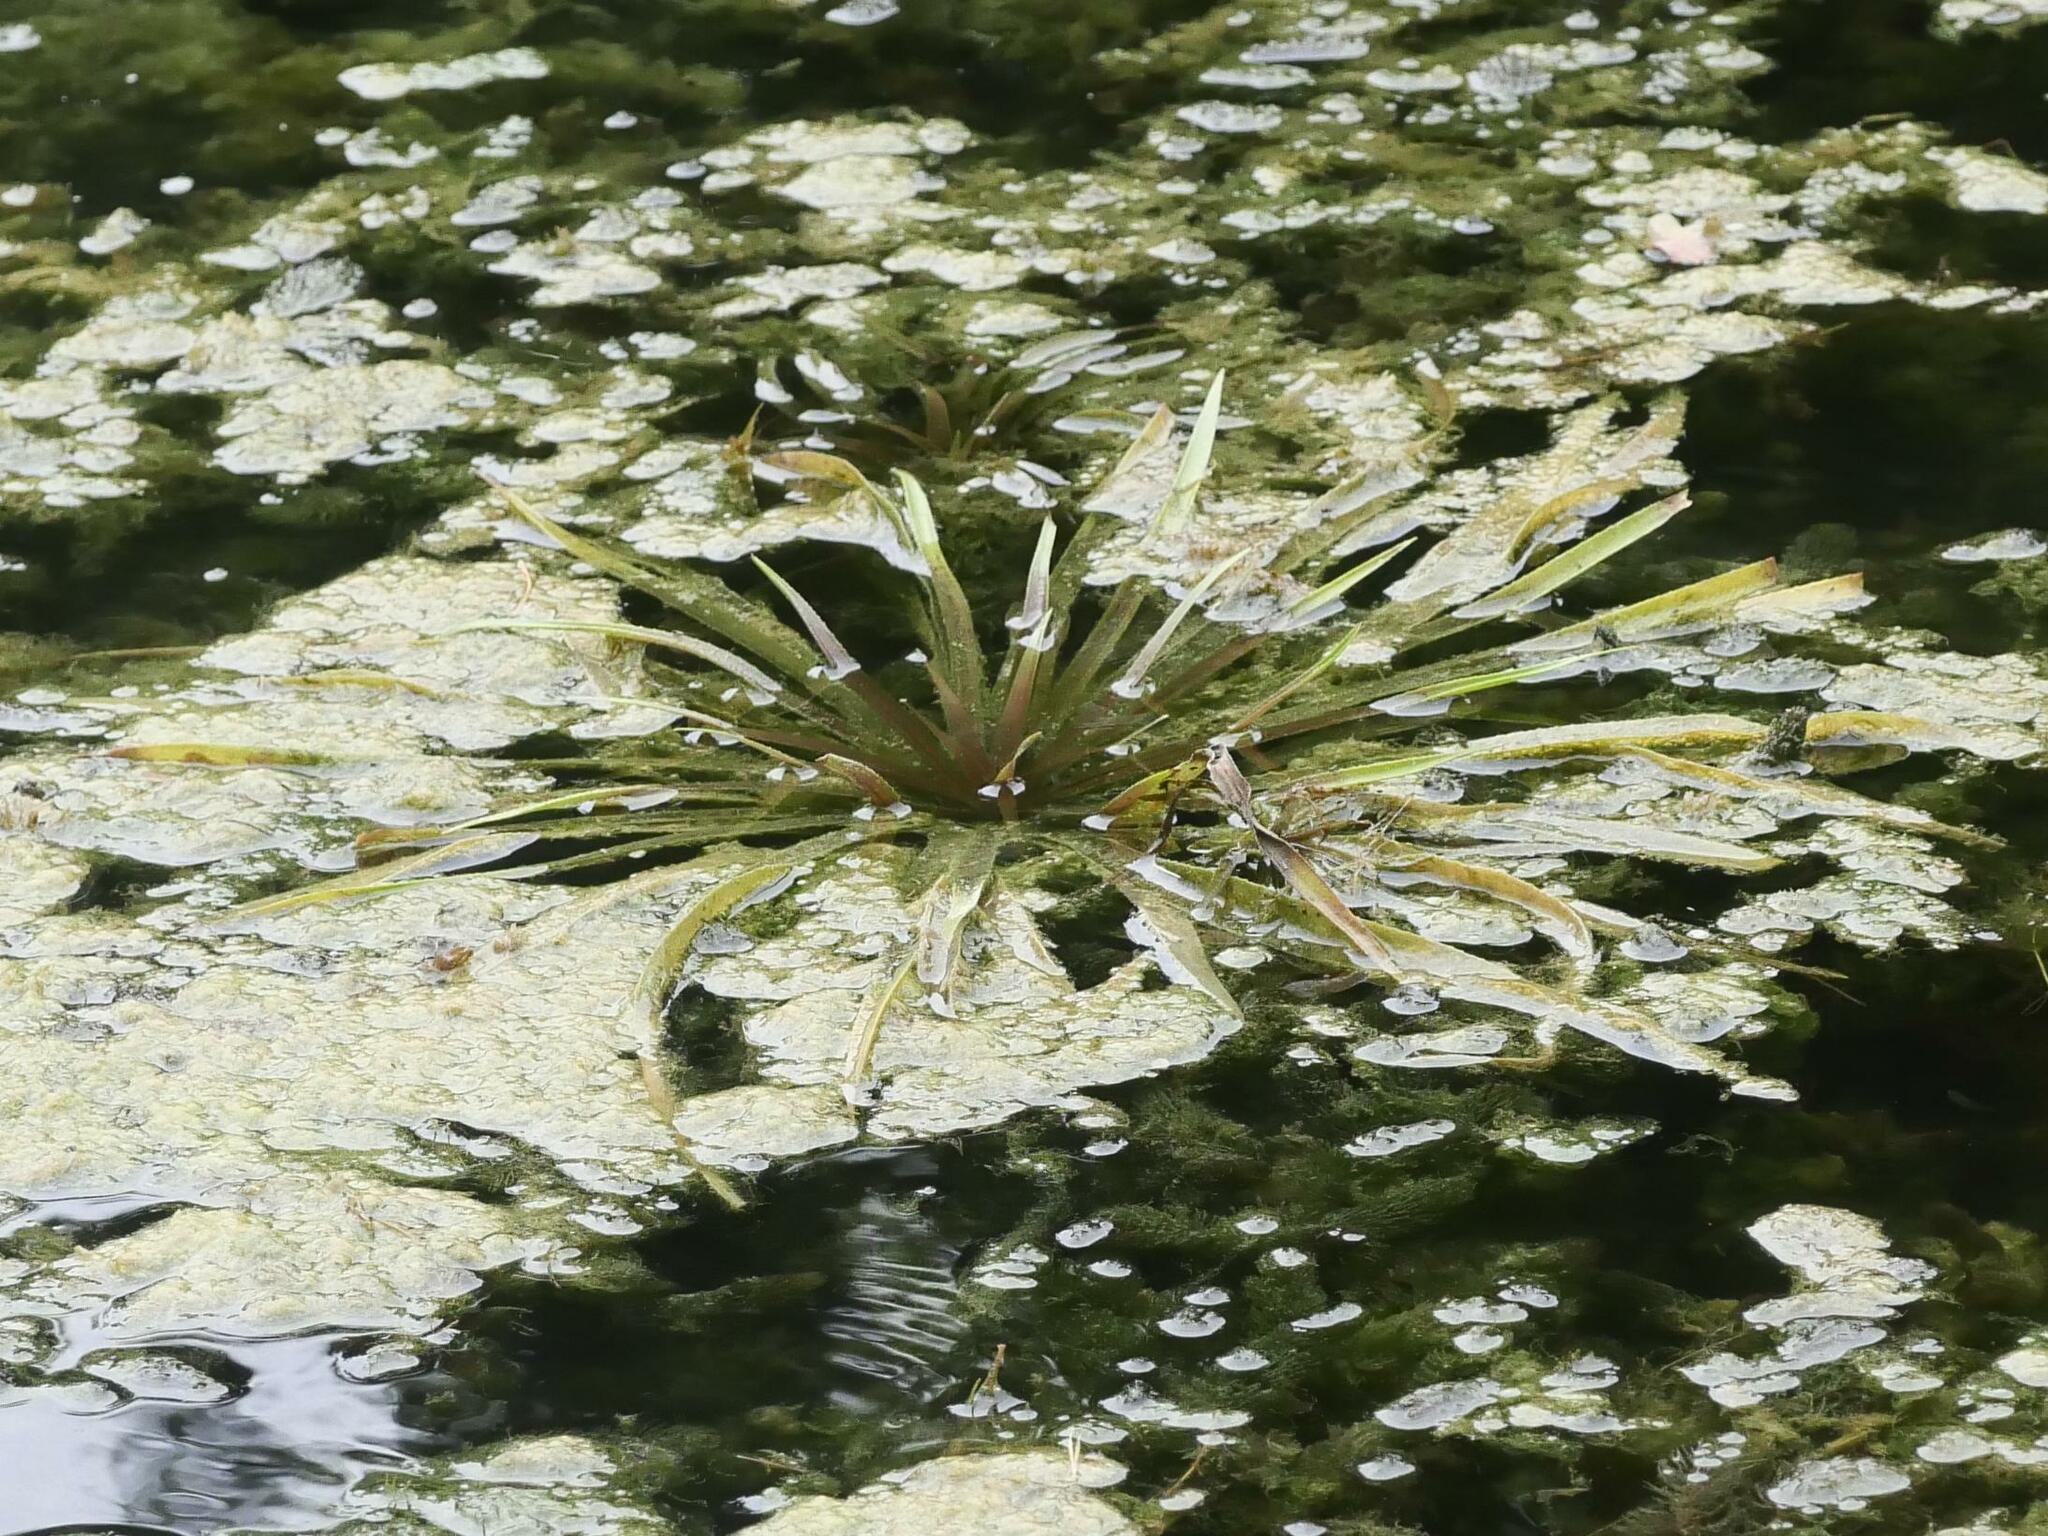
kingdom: Plantae
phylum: Tracheophyta
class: Liliopsida
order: Alismatales
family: Hydrocharitaceae
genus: Stratiotes
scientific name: Stratiotes aloides
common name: Water-soldier
